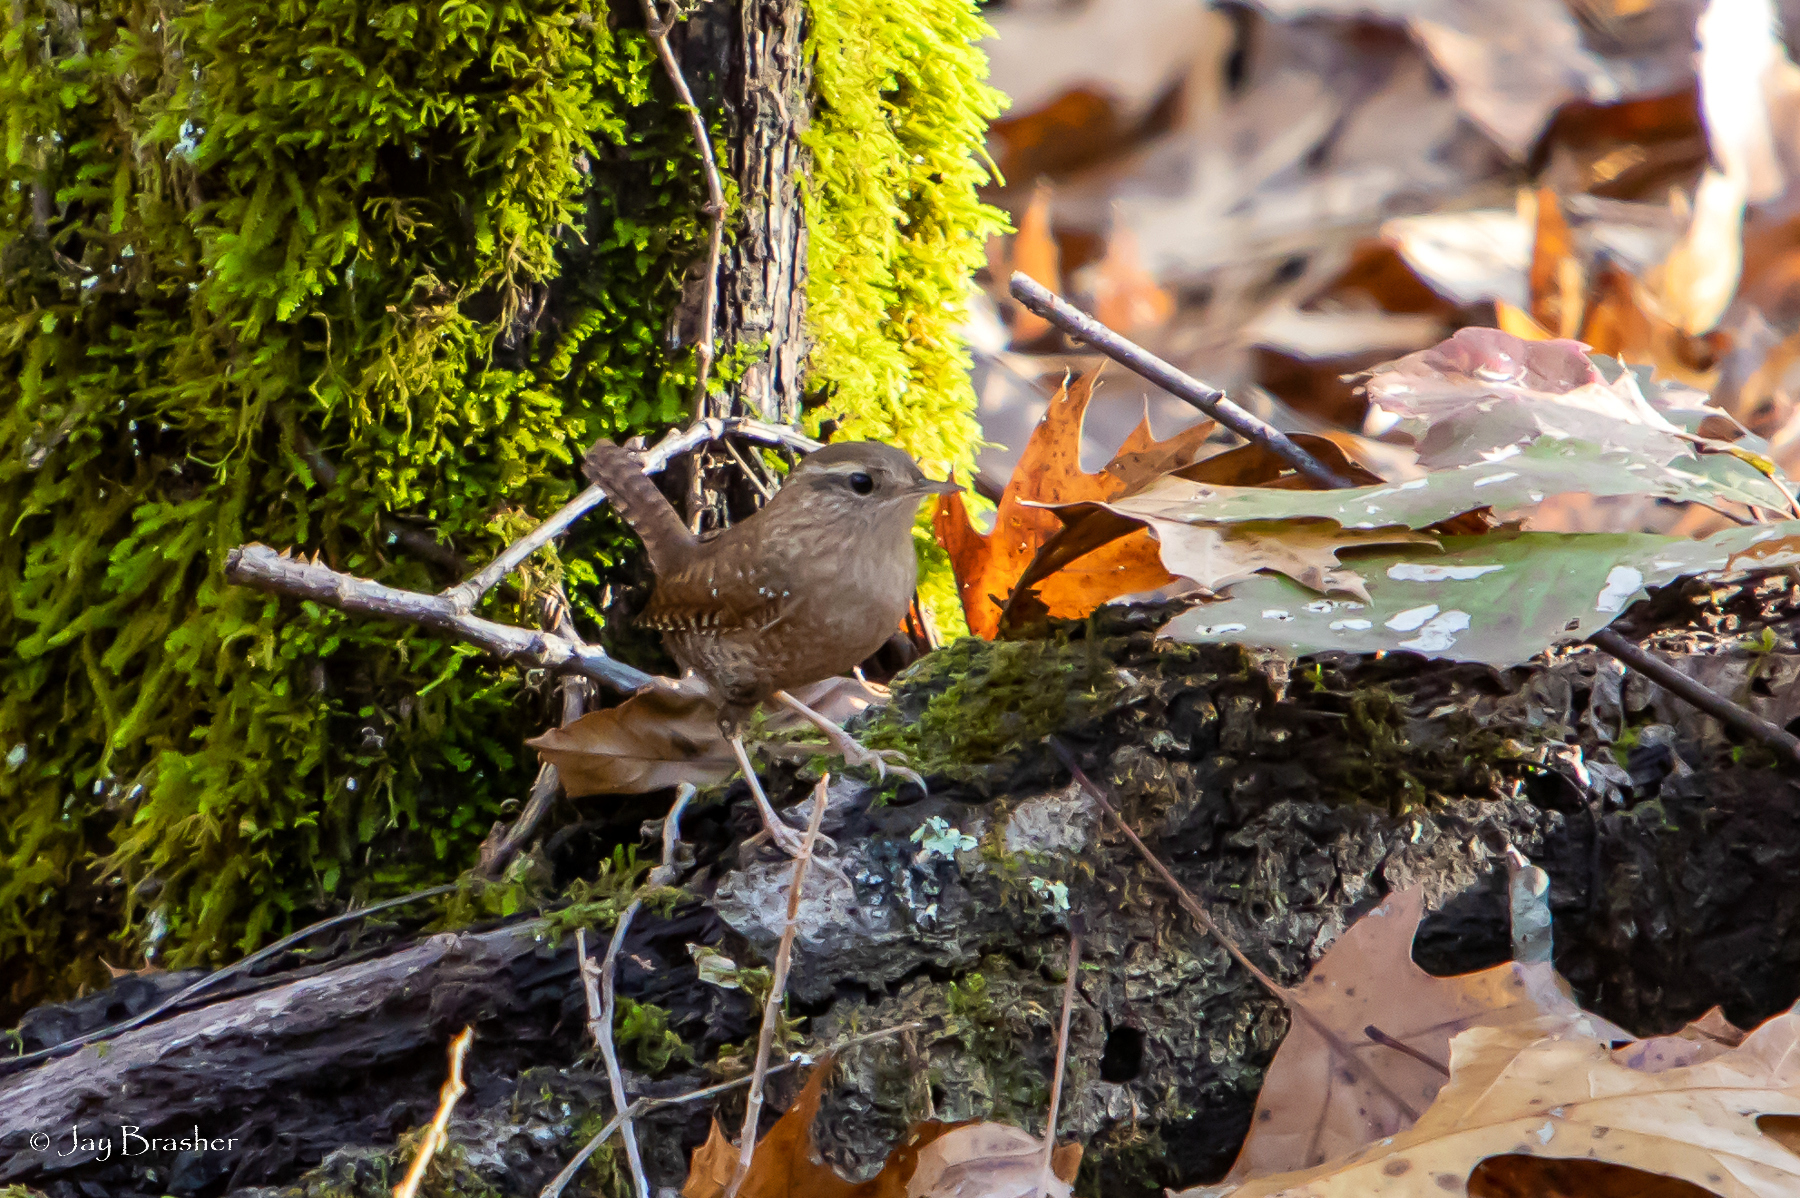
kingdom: Animalia
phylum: Chordata
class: Aves
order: Passeriformes
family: Troglodytidae
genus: Troglodytes
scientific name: Troglodytes hiemalis
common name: Winter wren
